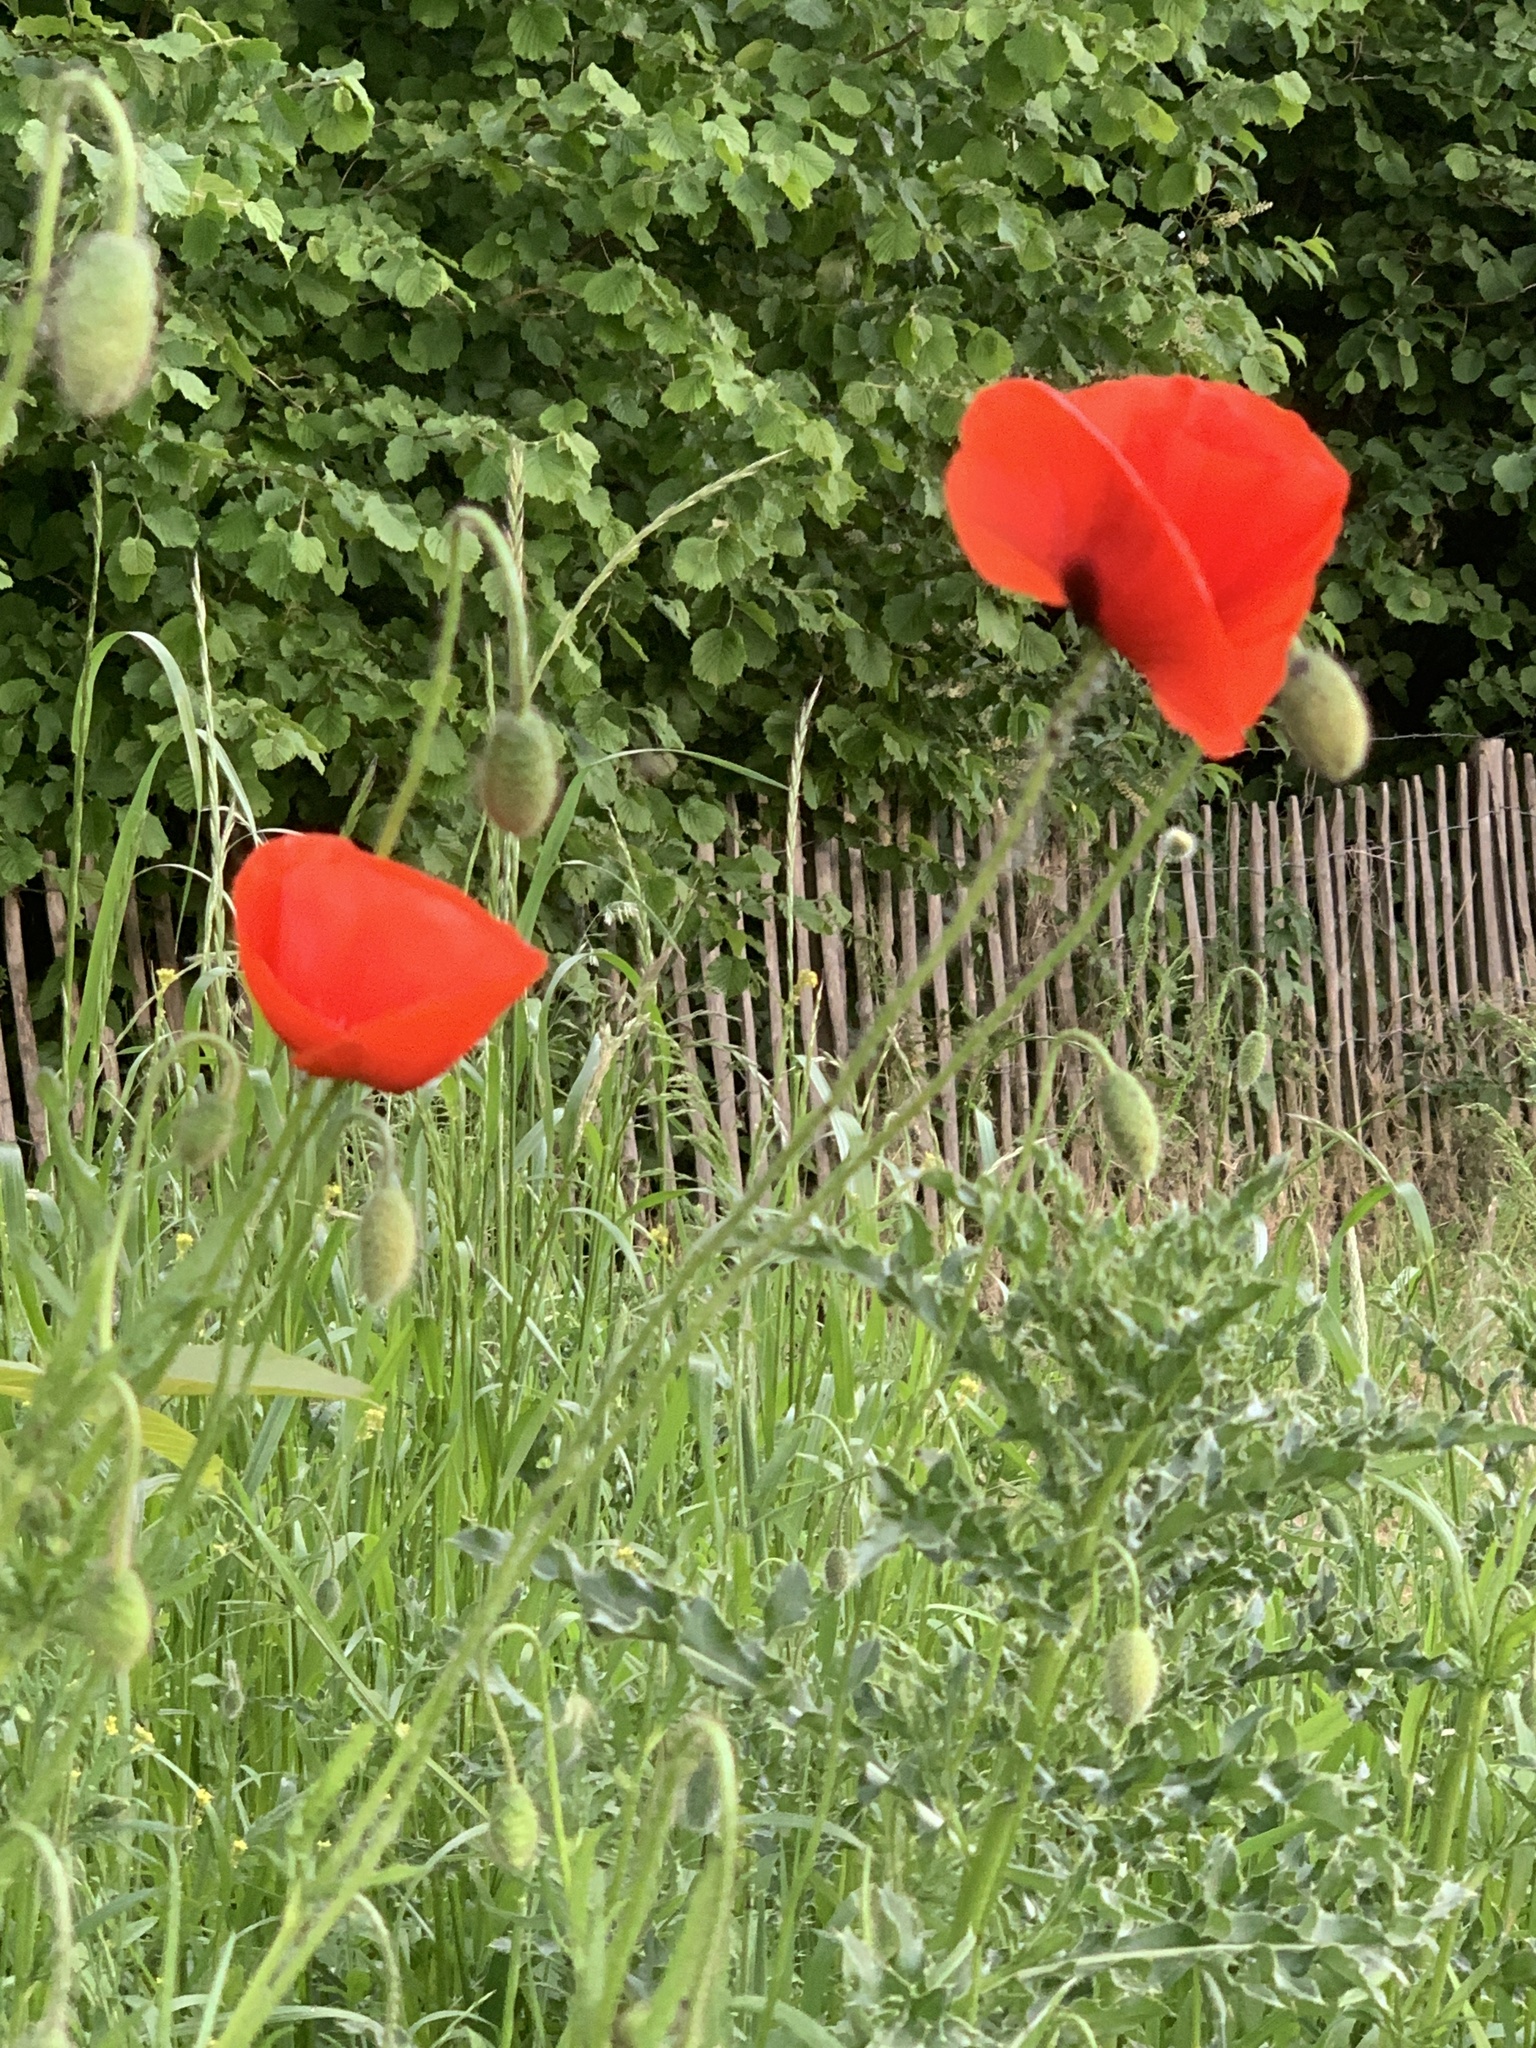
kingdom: Plantae
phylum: Tracheophyta
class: Magnoliopsida
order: Ranunculales
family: Papaveraceae
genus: Papaver
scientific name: Papaver rhoeas
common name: Corn poppy
